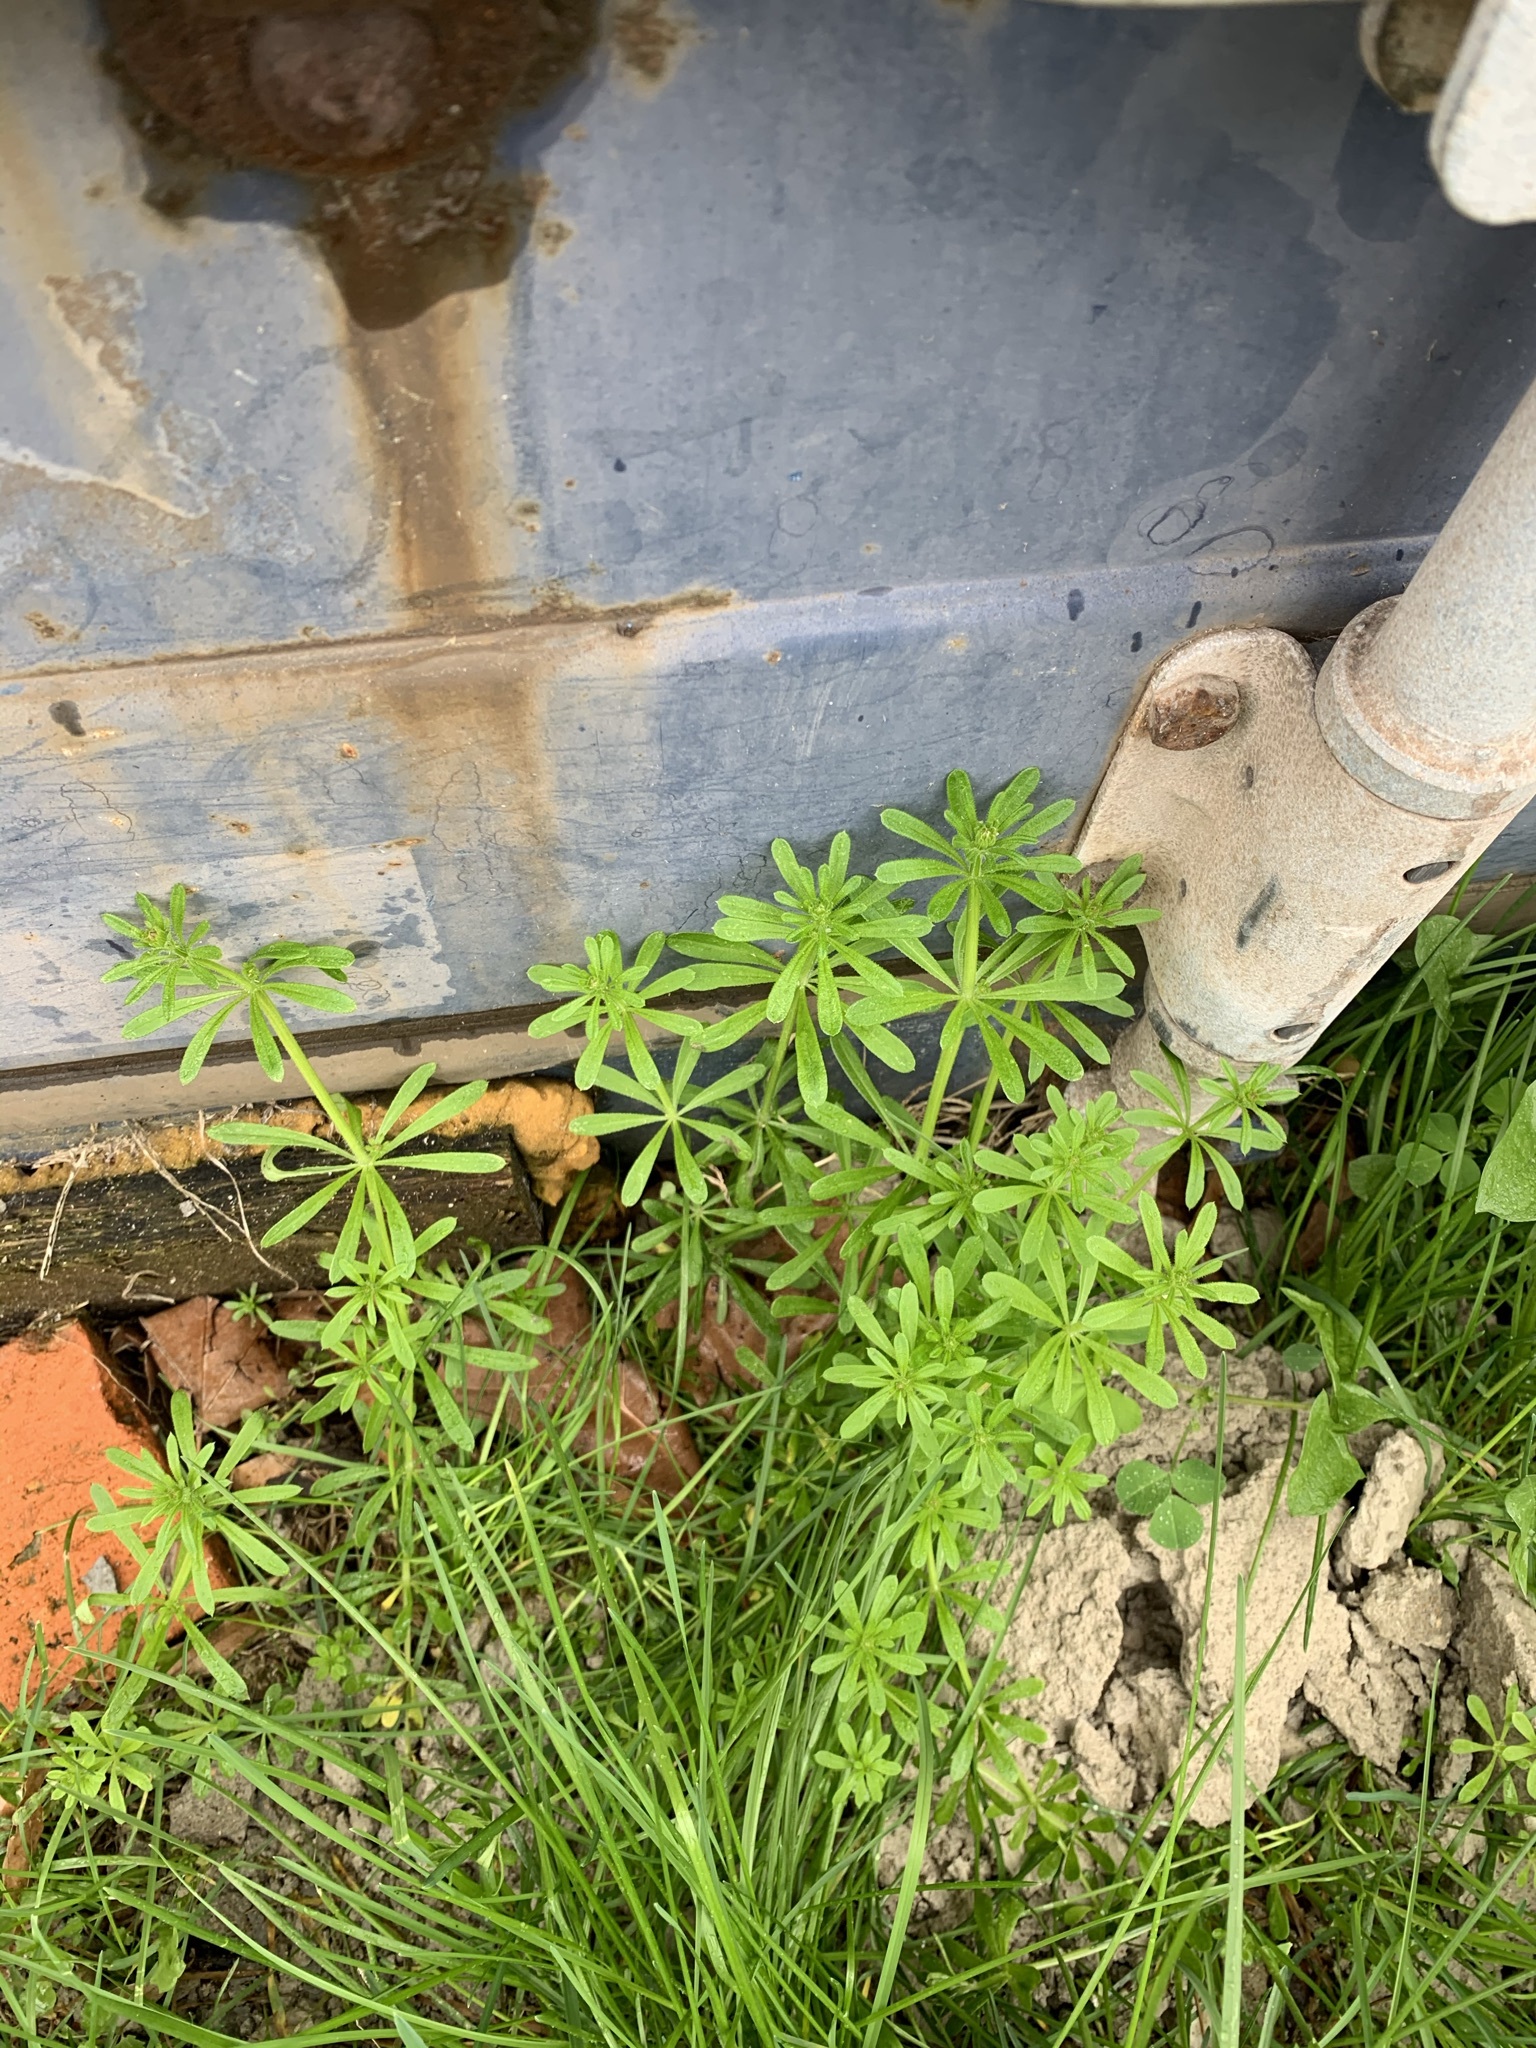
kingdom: Plantae
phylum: Tracheophyta
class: Magnoliopsida
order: Gentianales
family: Rubiaceae
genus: Galium
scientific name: Galium aparine
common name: Cleavers
